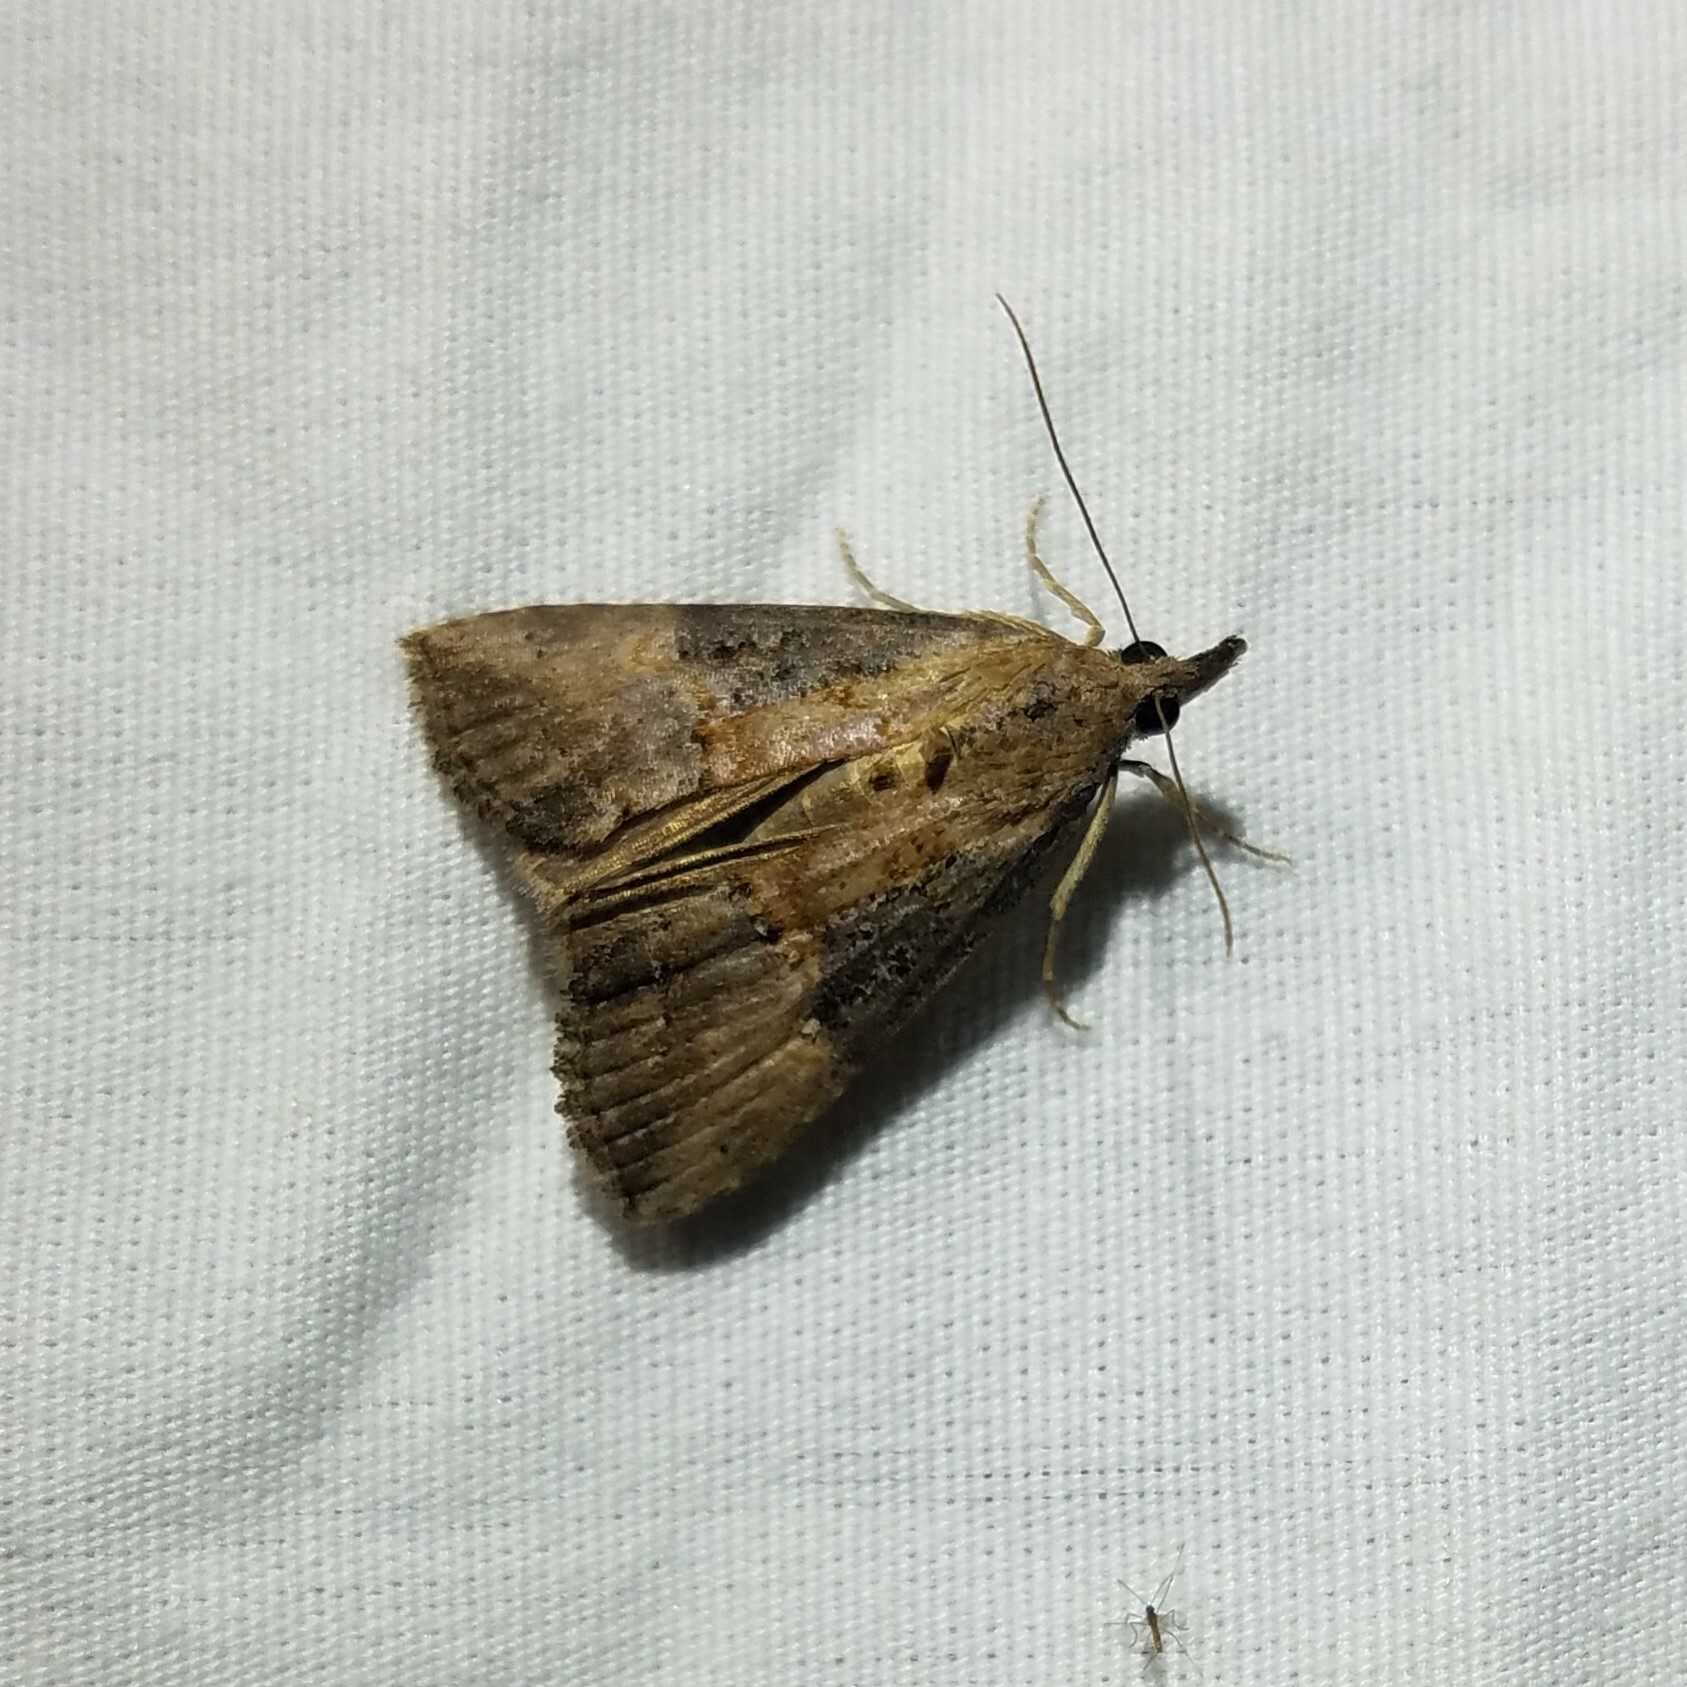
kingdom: Animalia
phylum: Arthropoda
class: Insecta
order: Lepidoptera
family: Erebidae
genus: Hypena
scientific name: Hypena scabra
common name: Green cloverworm
